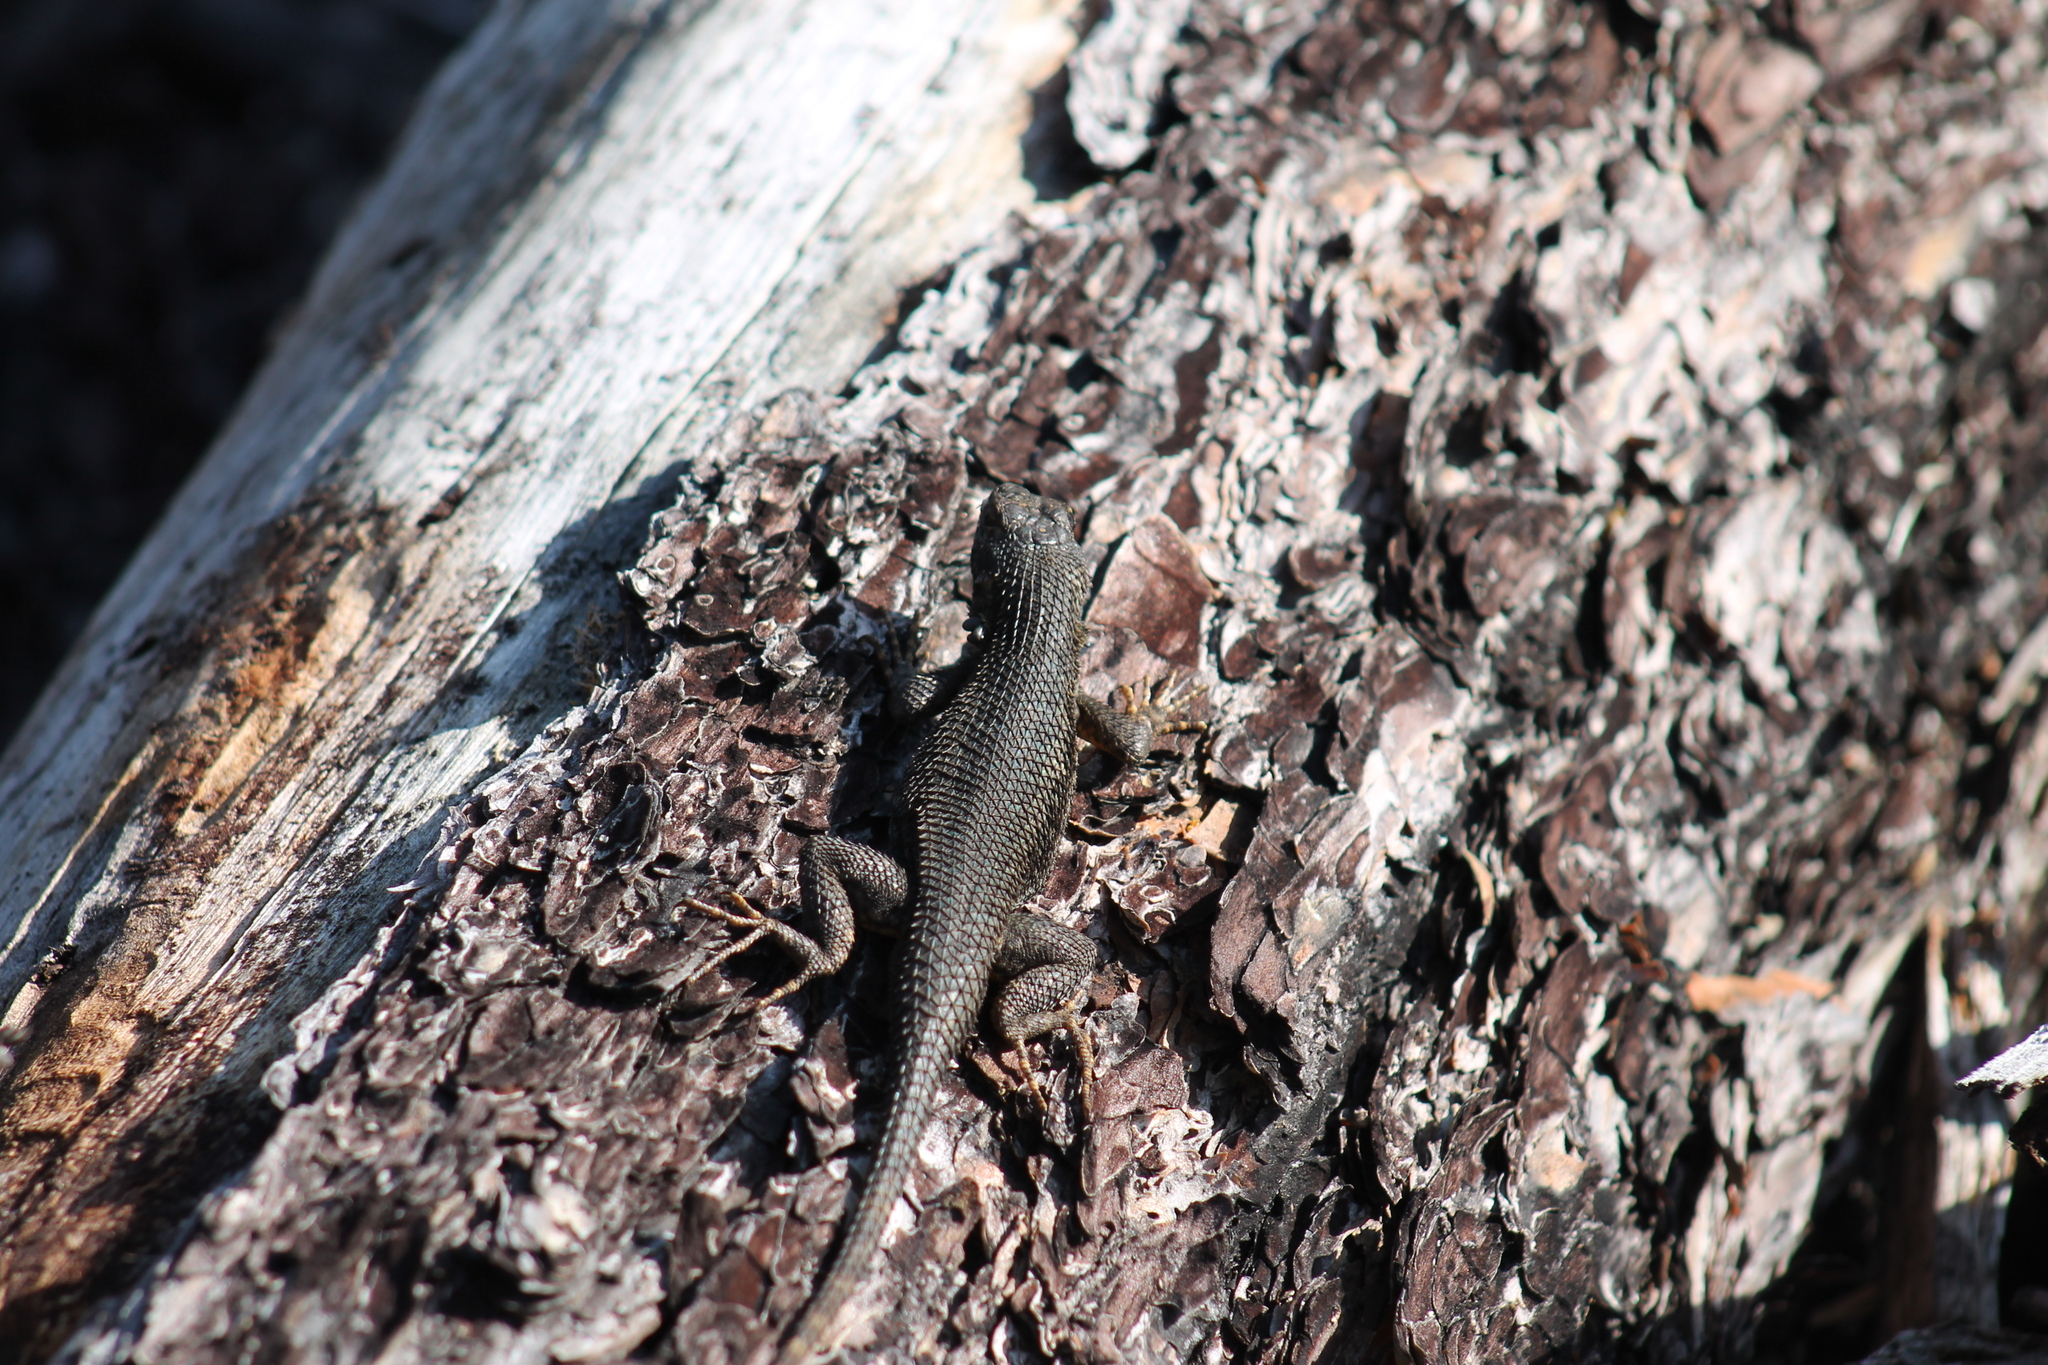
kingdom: Animalia
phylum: Chordata
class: Squamata
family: Phrynosomatidae
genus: Sceloporus
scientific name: Sceloporus occidentalis
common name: Western fence lizard
